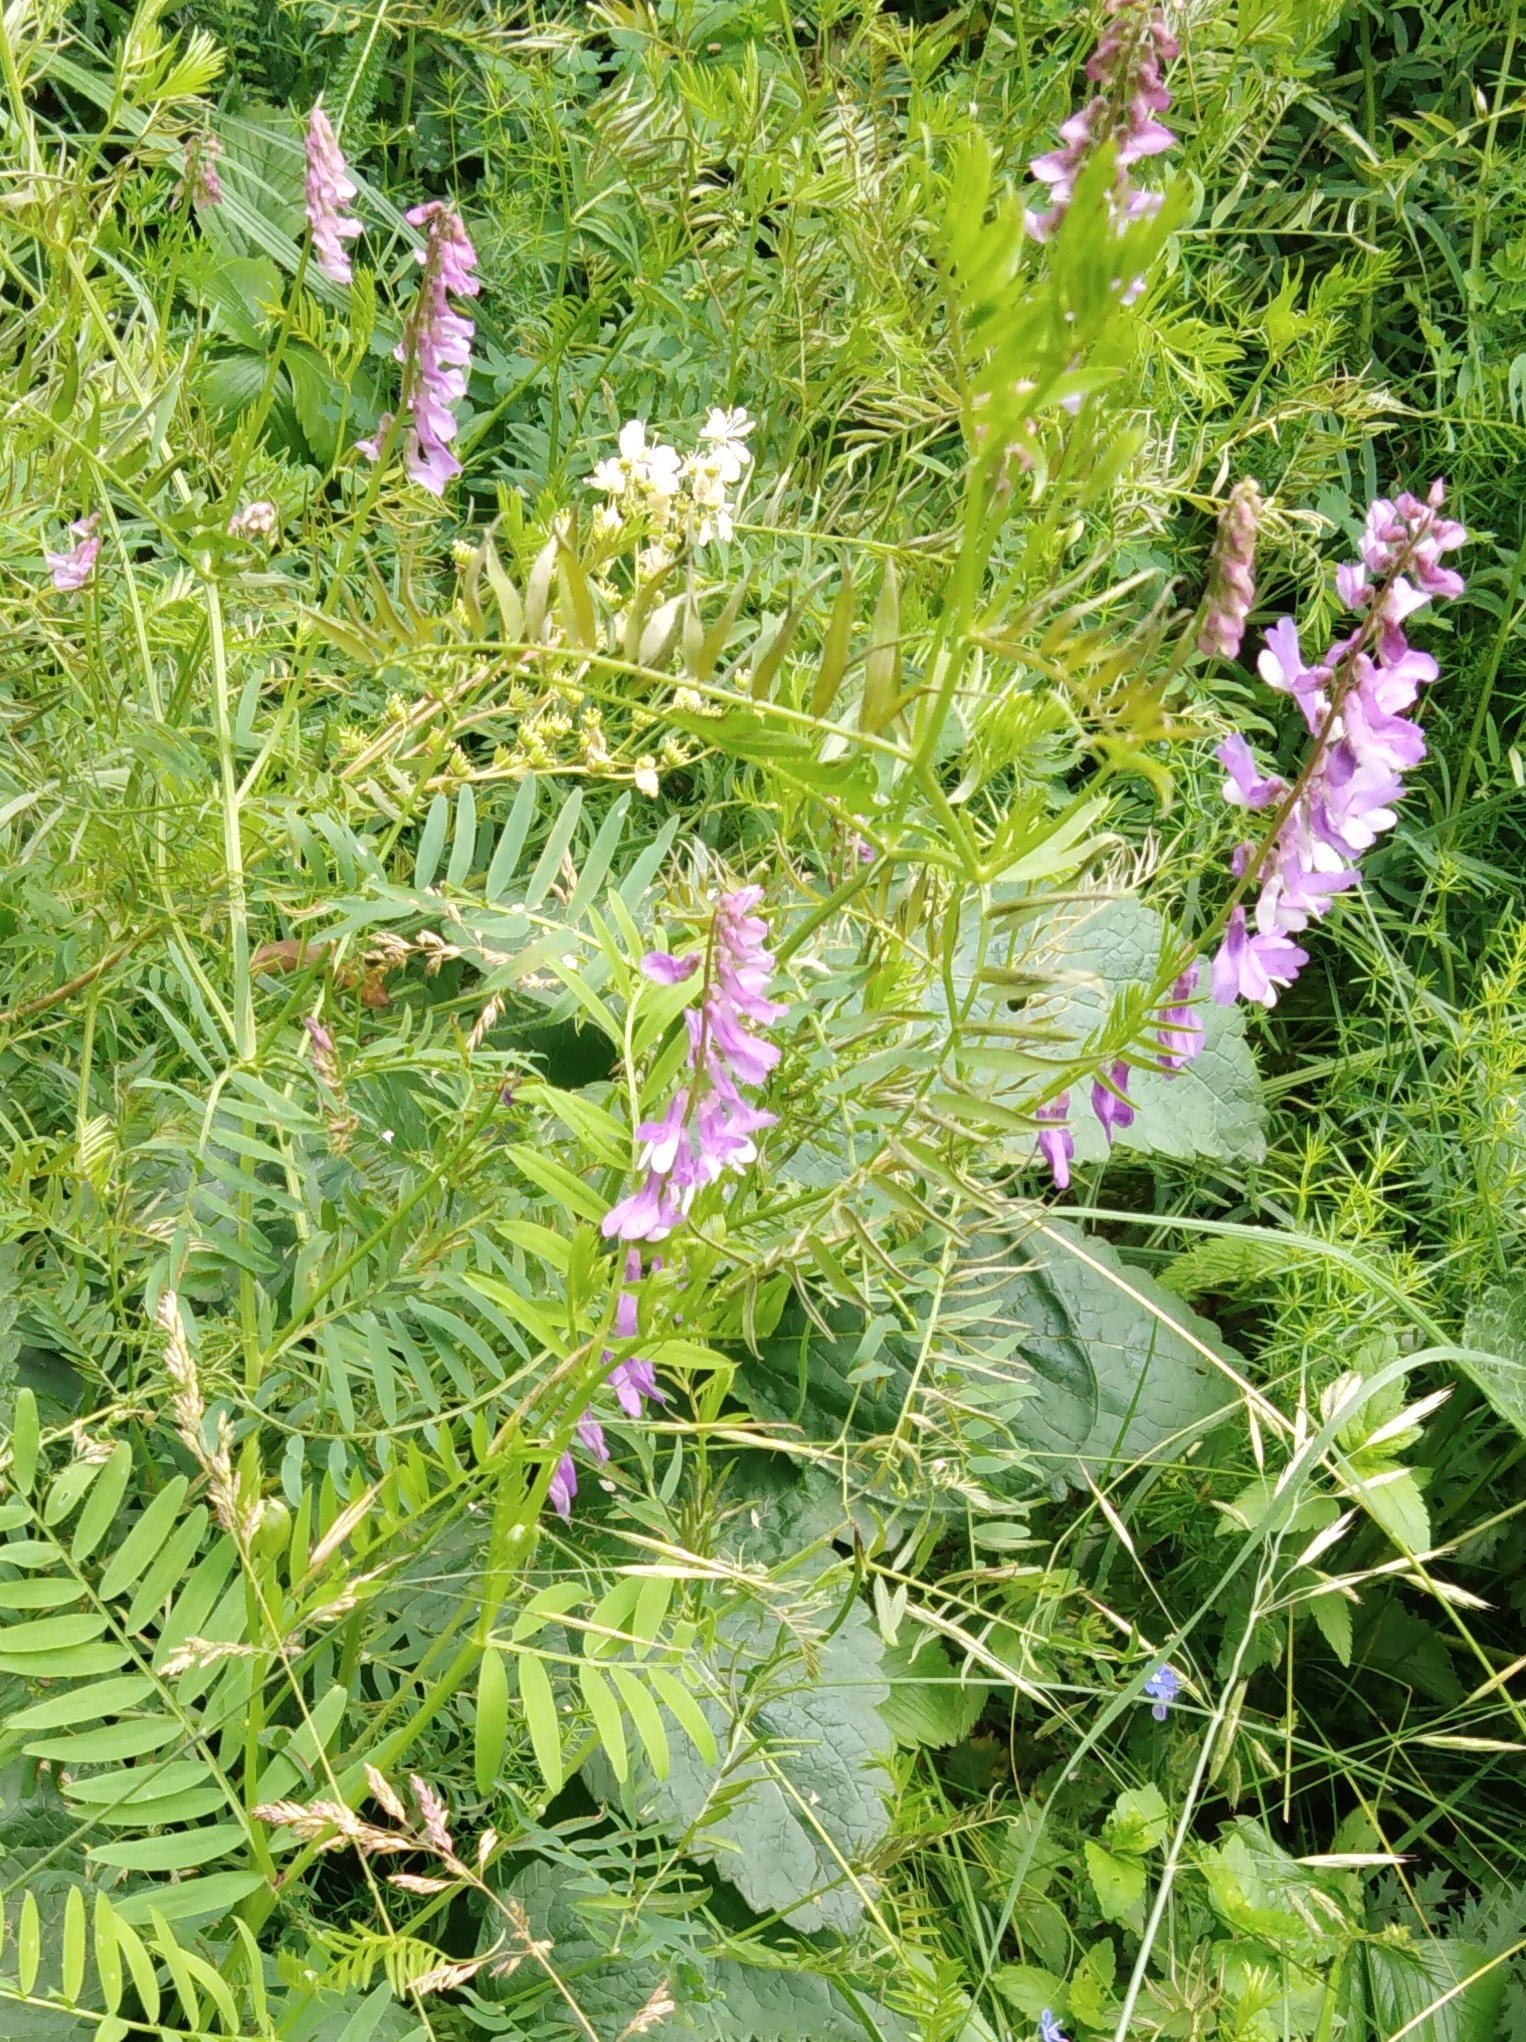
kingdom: Plantae
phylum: Tracheophyta
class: Magnoliopsida
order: Fabales
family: Fabaceae
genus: Vicia
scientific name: Vicia tenuifolia
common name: Fine-leaved vetch
